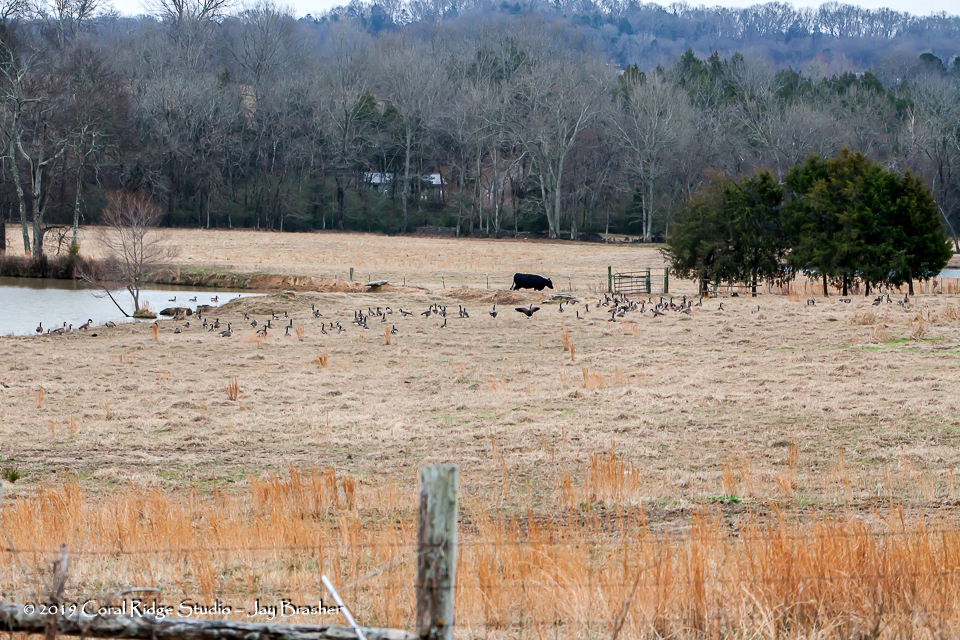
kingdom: Animalia
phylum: Chordata
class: Aves
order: Anseriformes
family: Anatidae
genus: Branta
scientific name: Branta canadensis
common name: Canada goose
